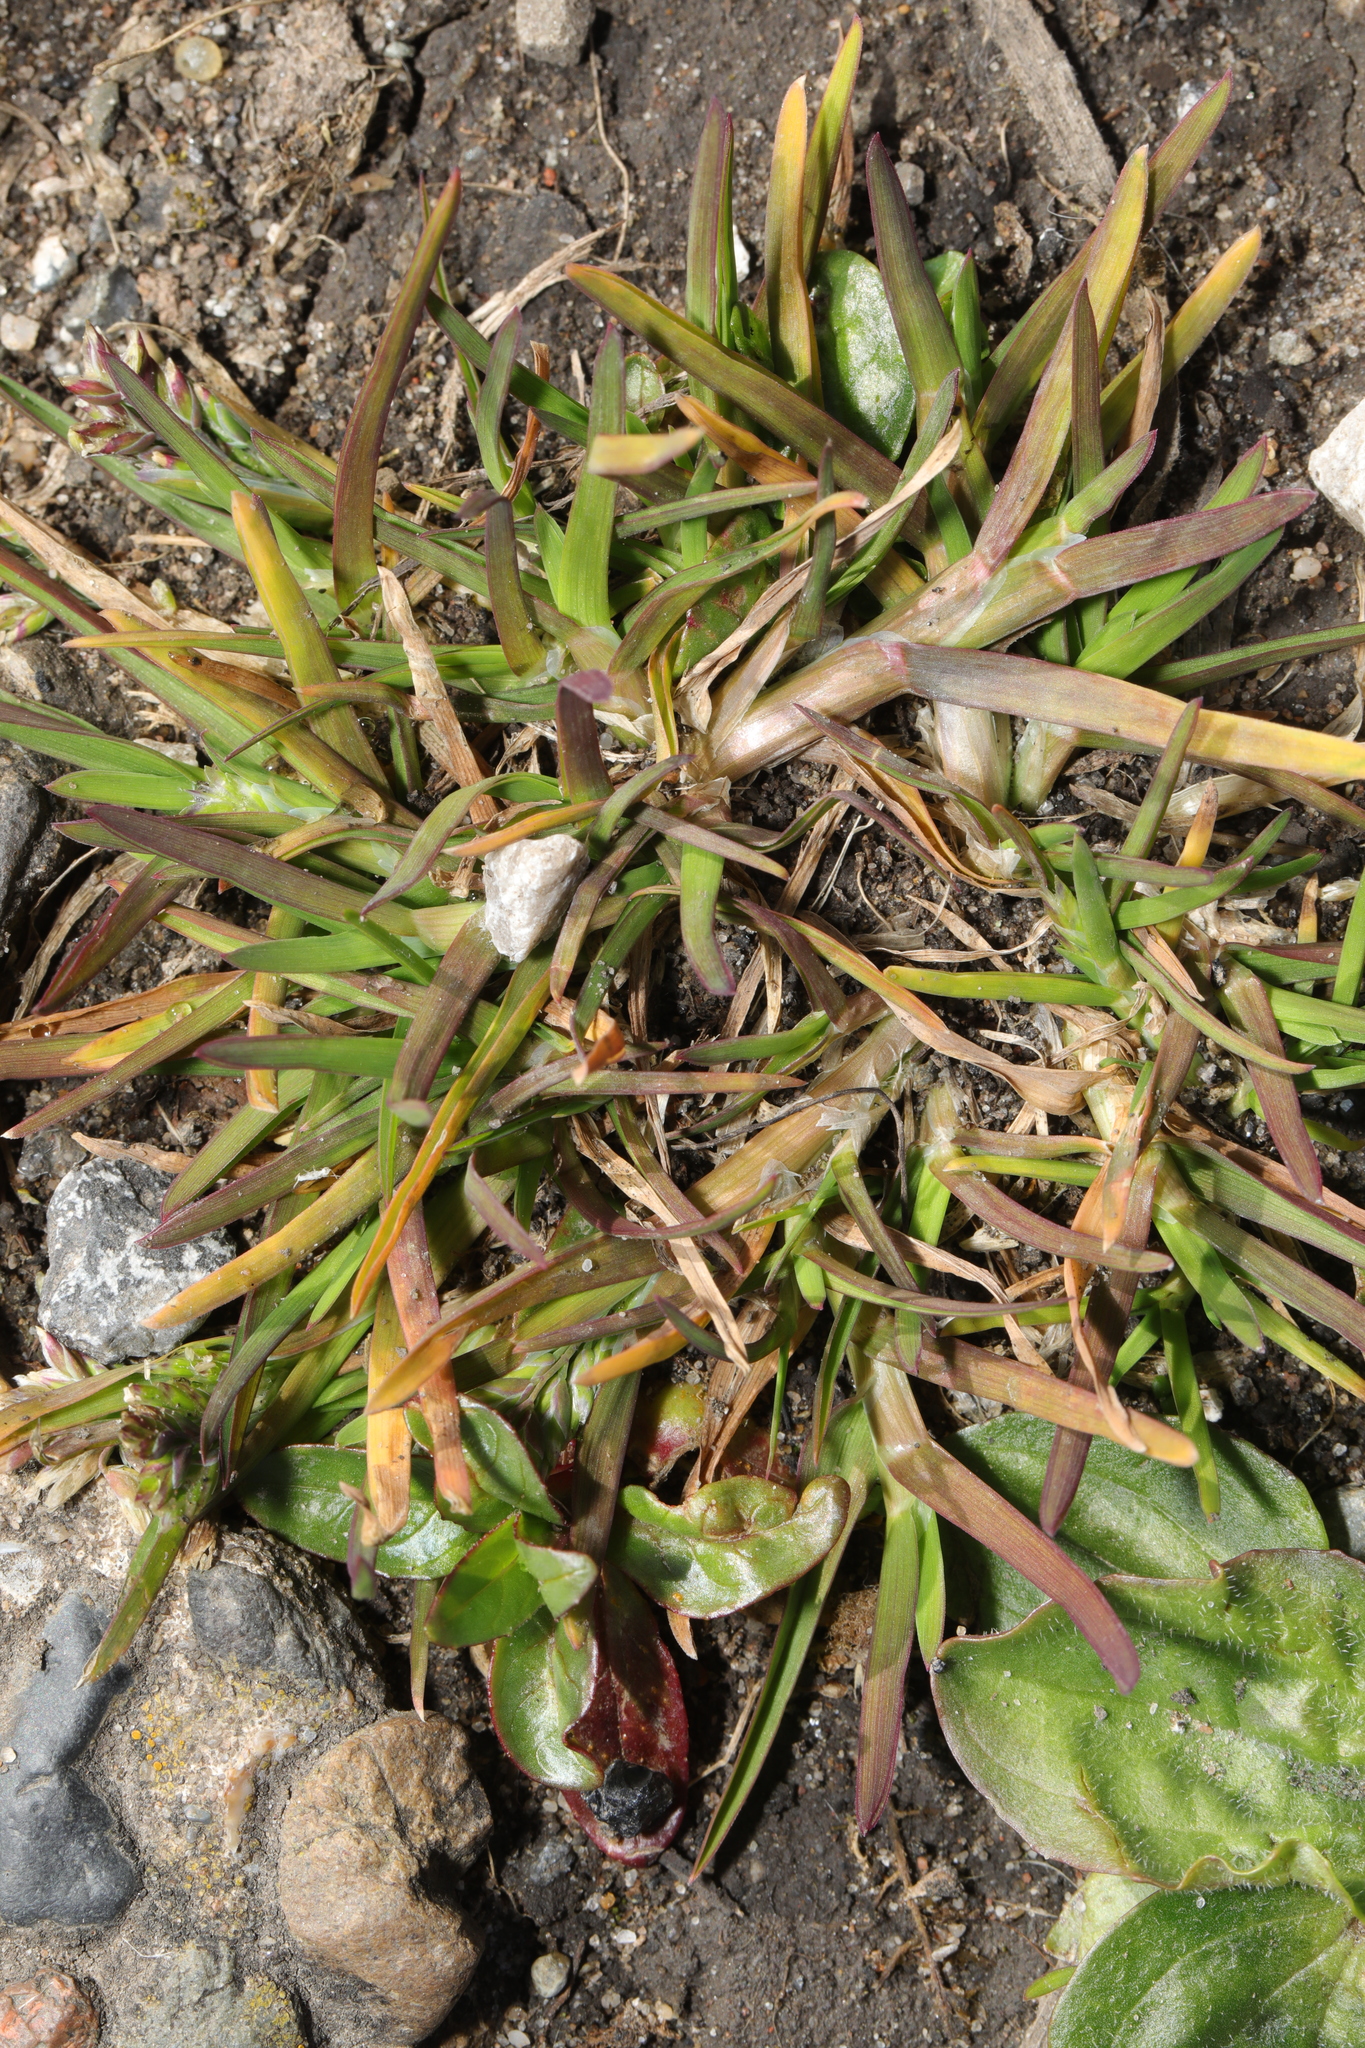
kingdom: Plantae
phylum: Tracheophyta
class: Liliopsida
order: Poales
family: Poaceae
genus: Poa
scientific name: Poa annua
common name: Annual bluegrass
